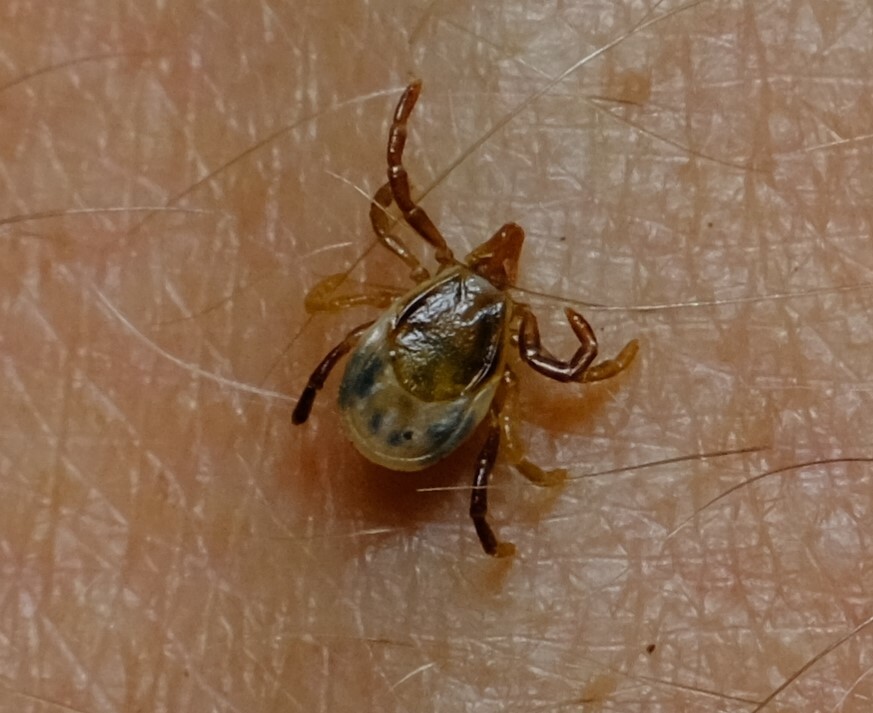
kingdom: Animalia
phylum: Arthropoda
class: Arachnida
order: Ixodida
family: Ixodidae
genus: Ixodes
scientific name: Ixodes holocyclus
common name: Australian paralysis tick
